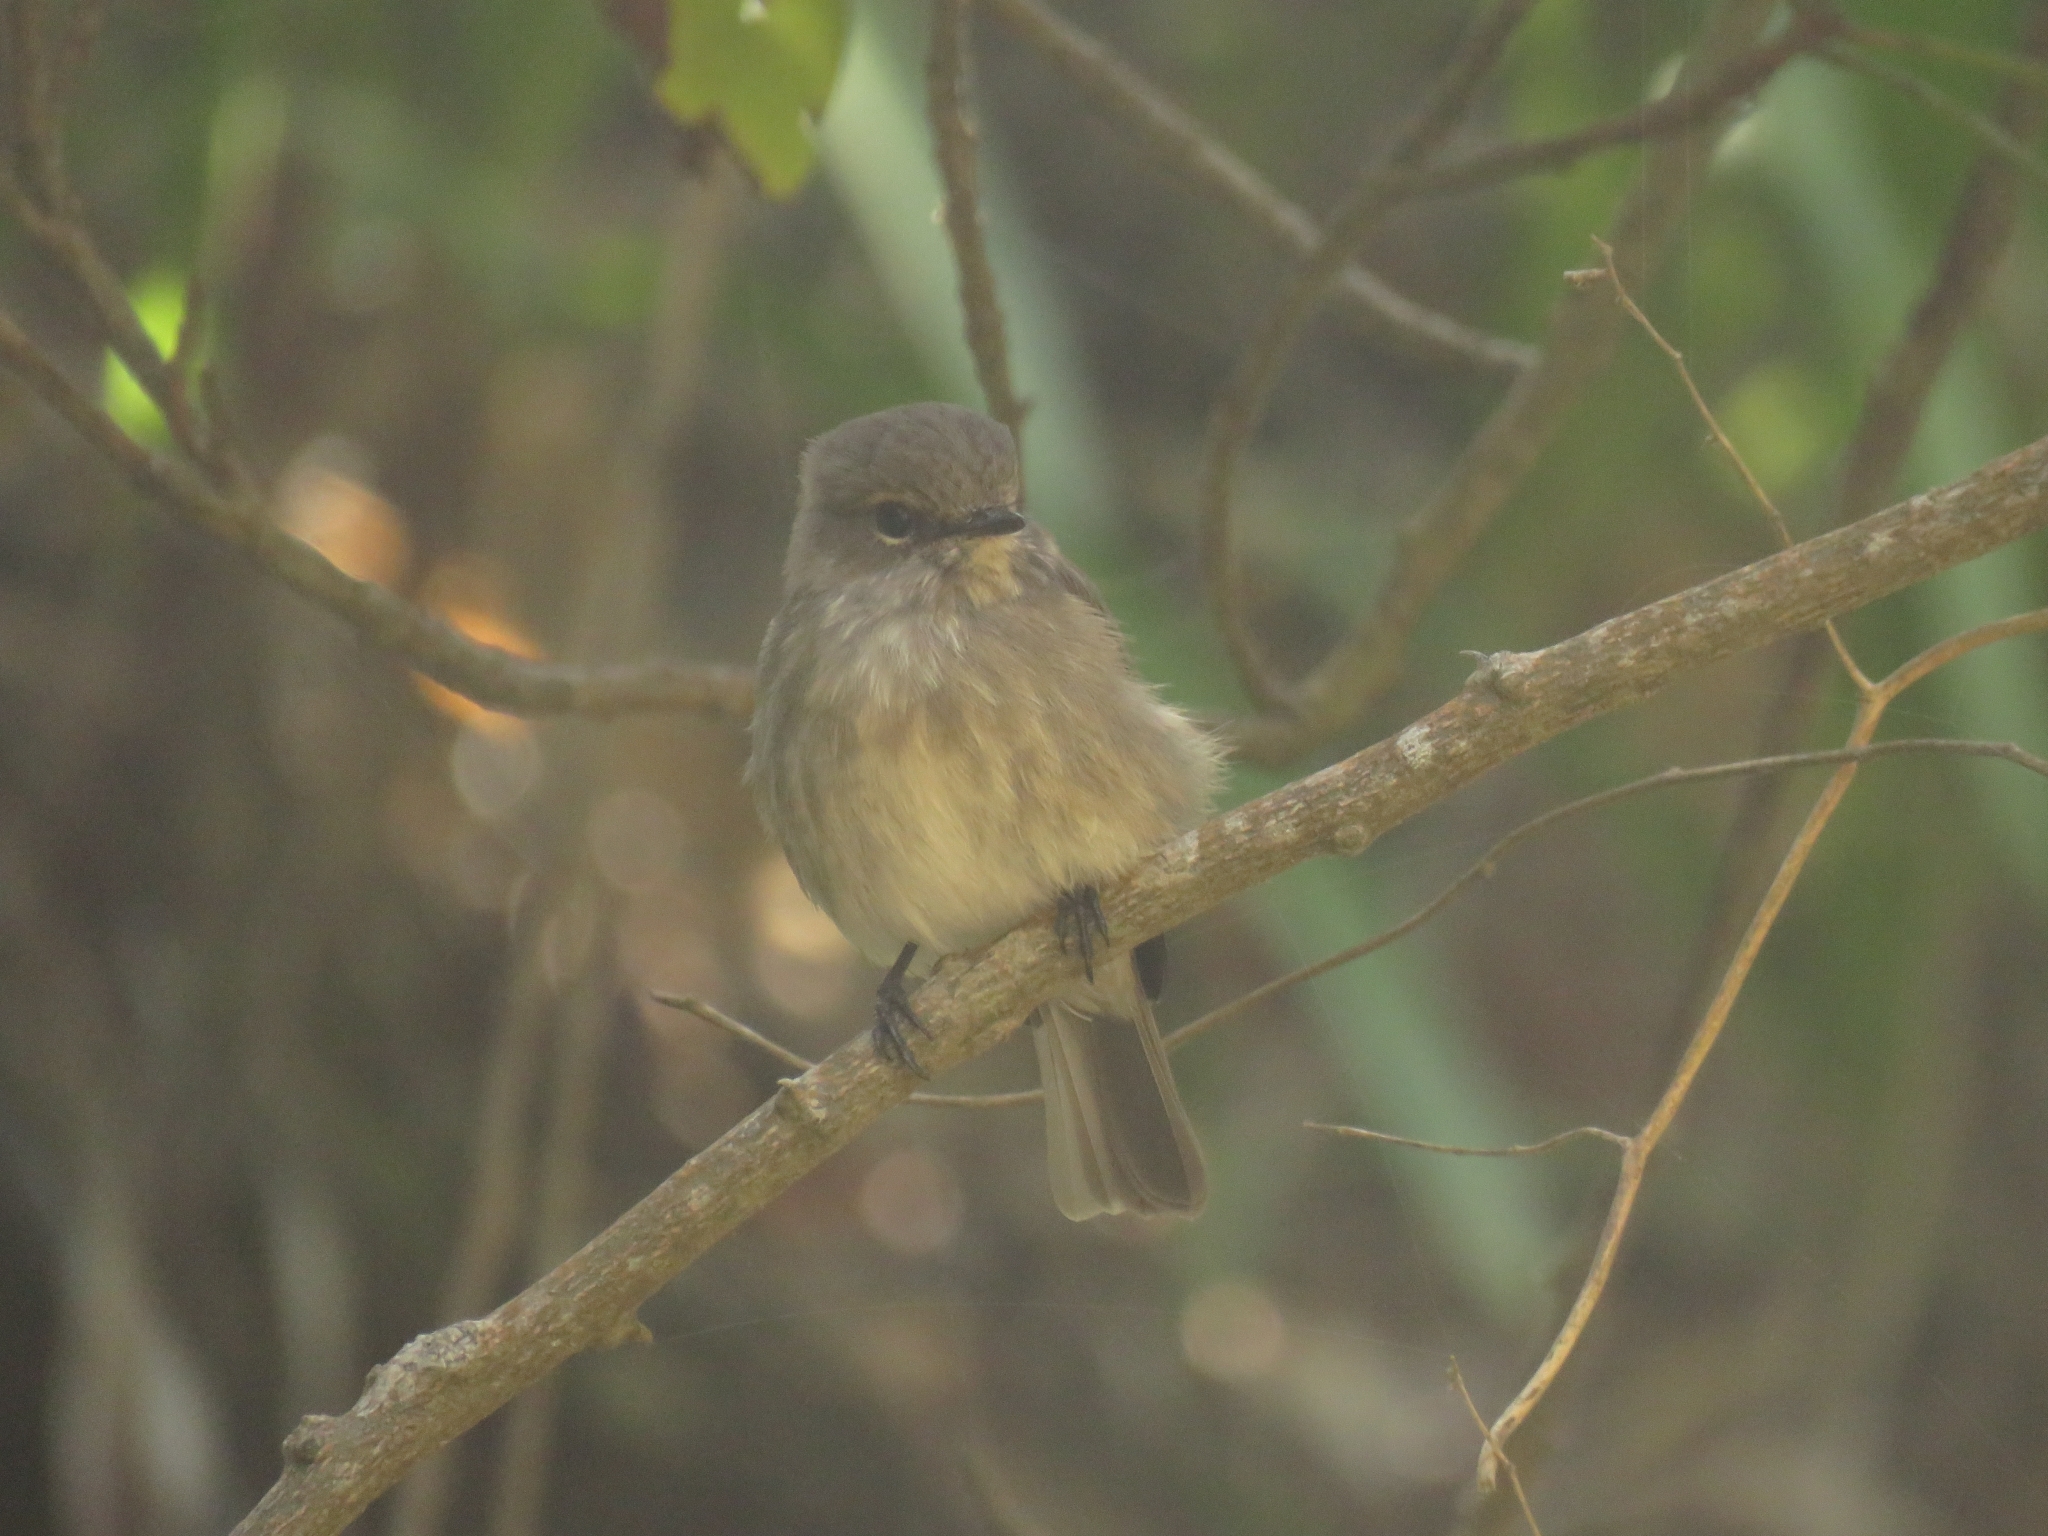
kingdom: Animalia
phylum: Chordata
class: Aves
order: Passeriformes
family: Muscicapidae
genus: Muscicapa
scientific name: Muscicapa adusta
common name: African dusky flycatcher
